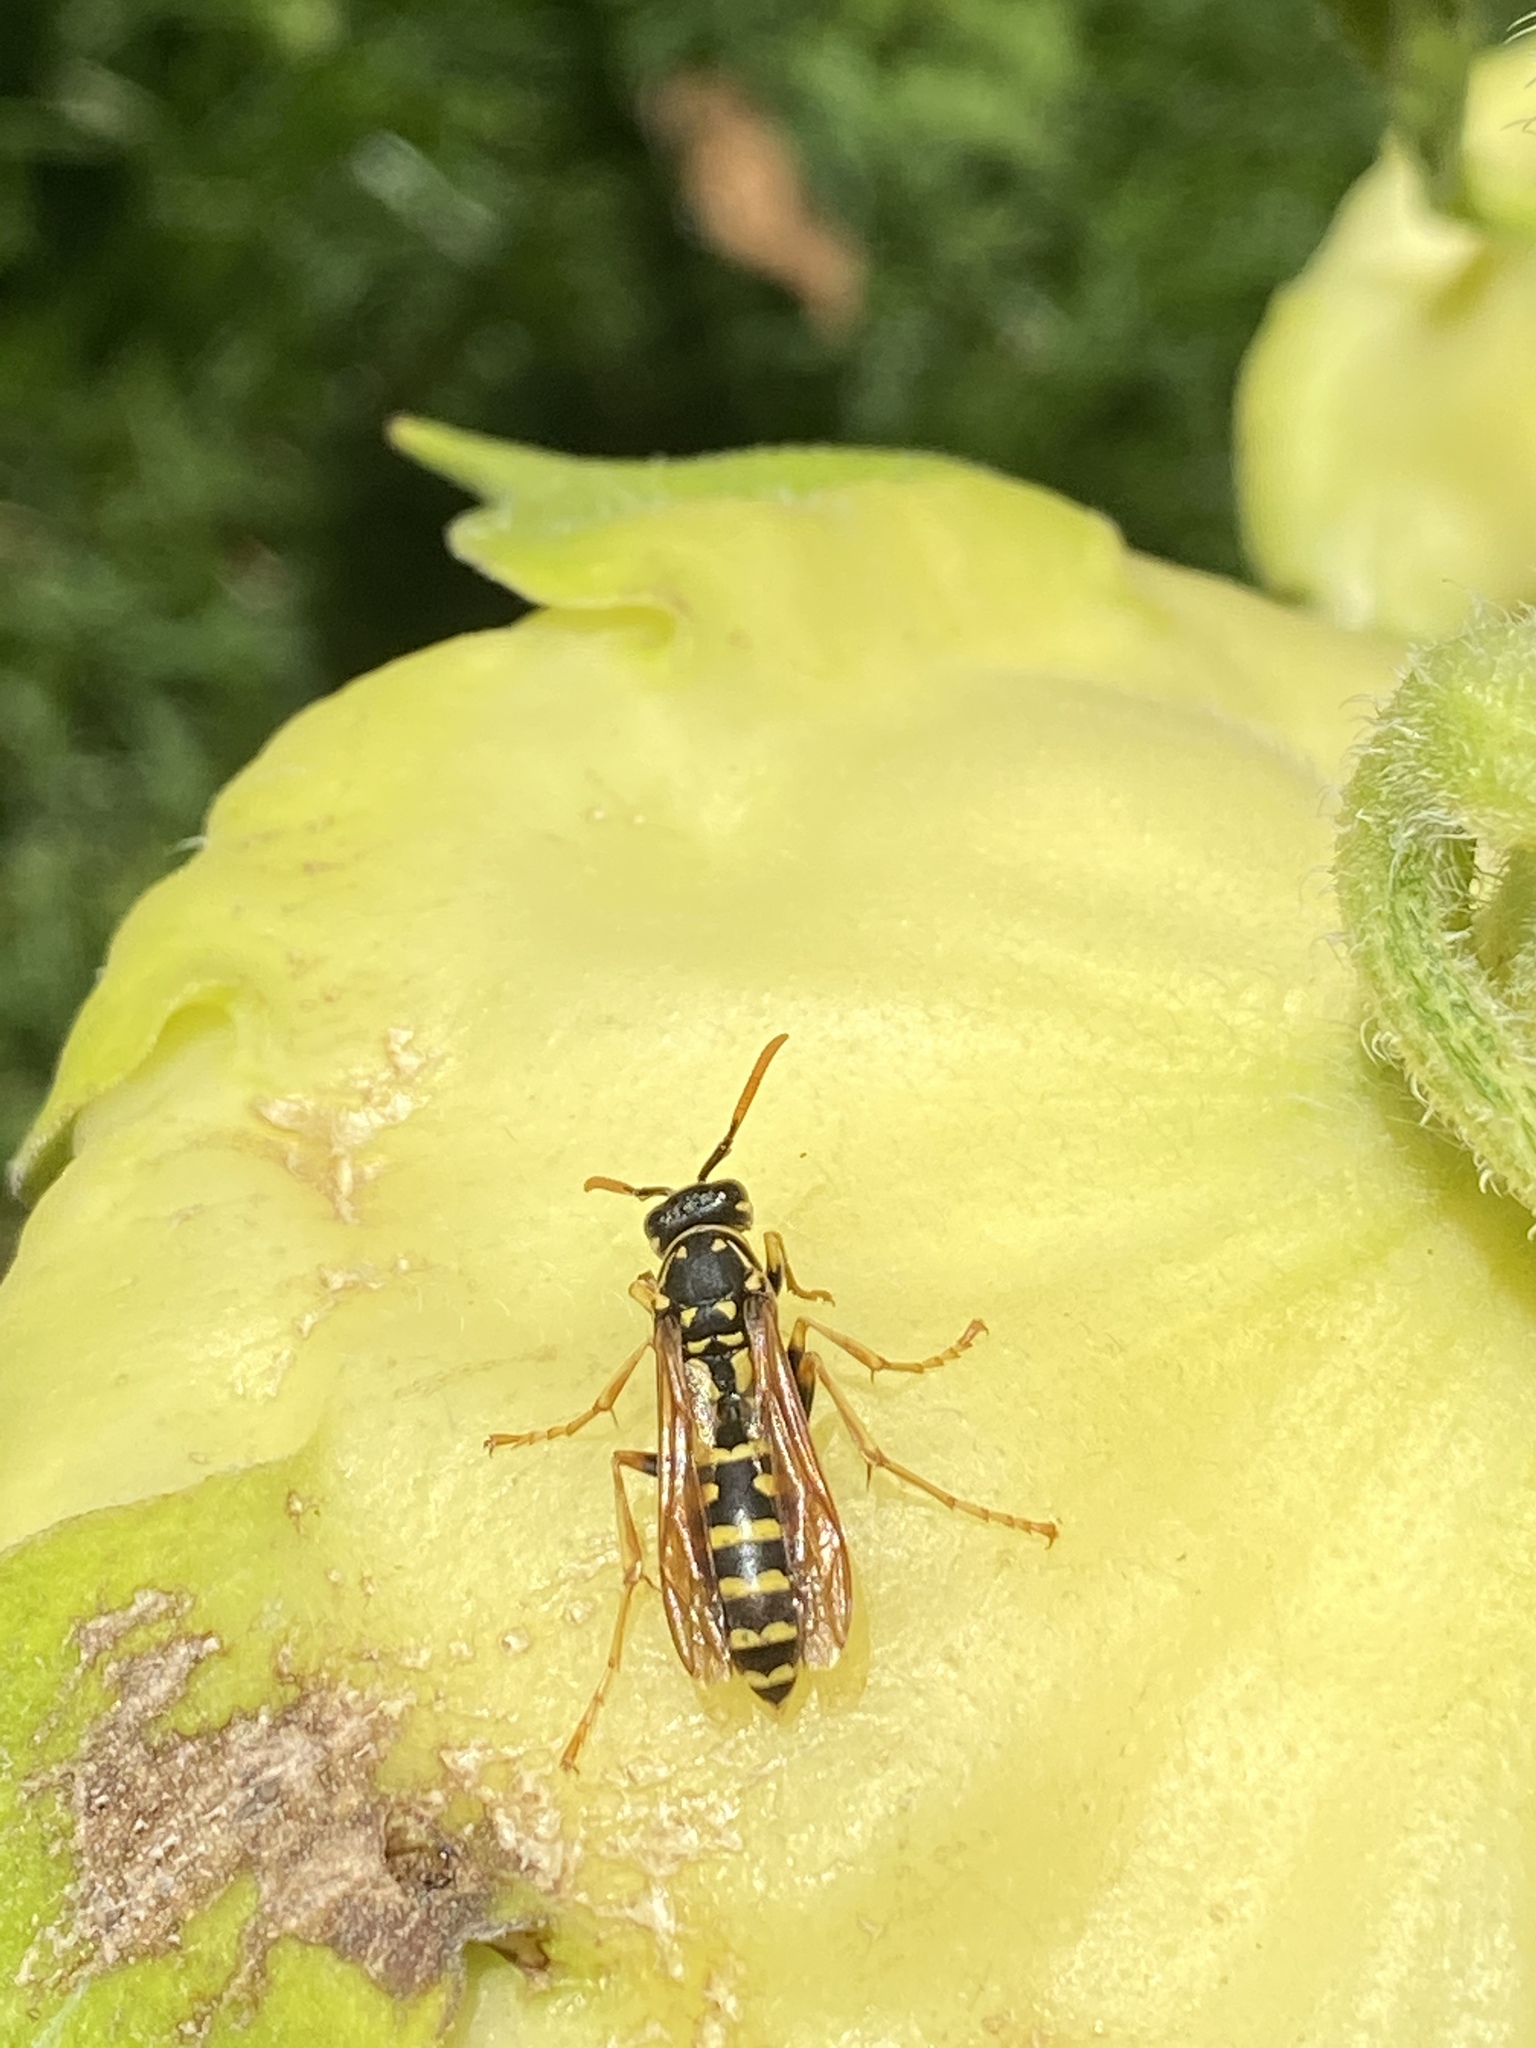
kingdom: Animalia
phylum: Arthropoda
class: Insecta
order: Hymenoptera
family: Eumenidae
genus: Polistes
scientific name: Polistes dominula
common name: Paper wasp
